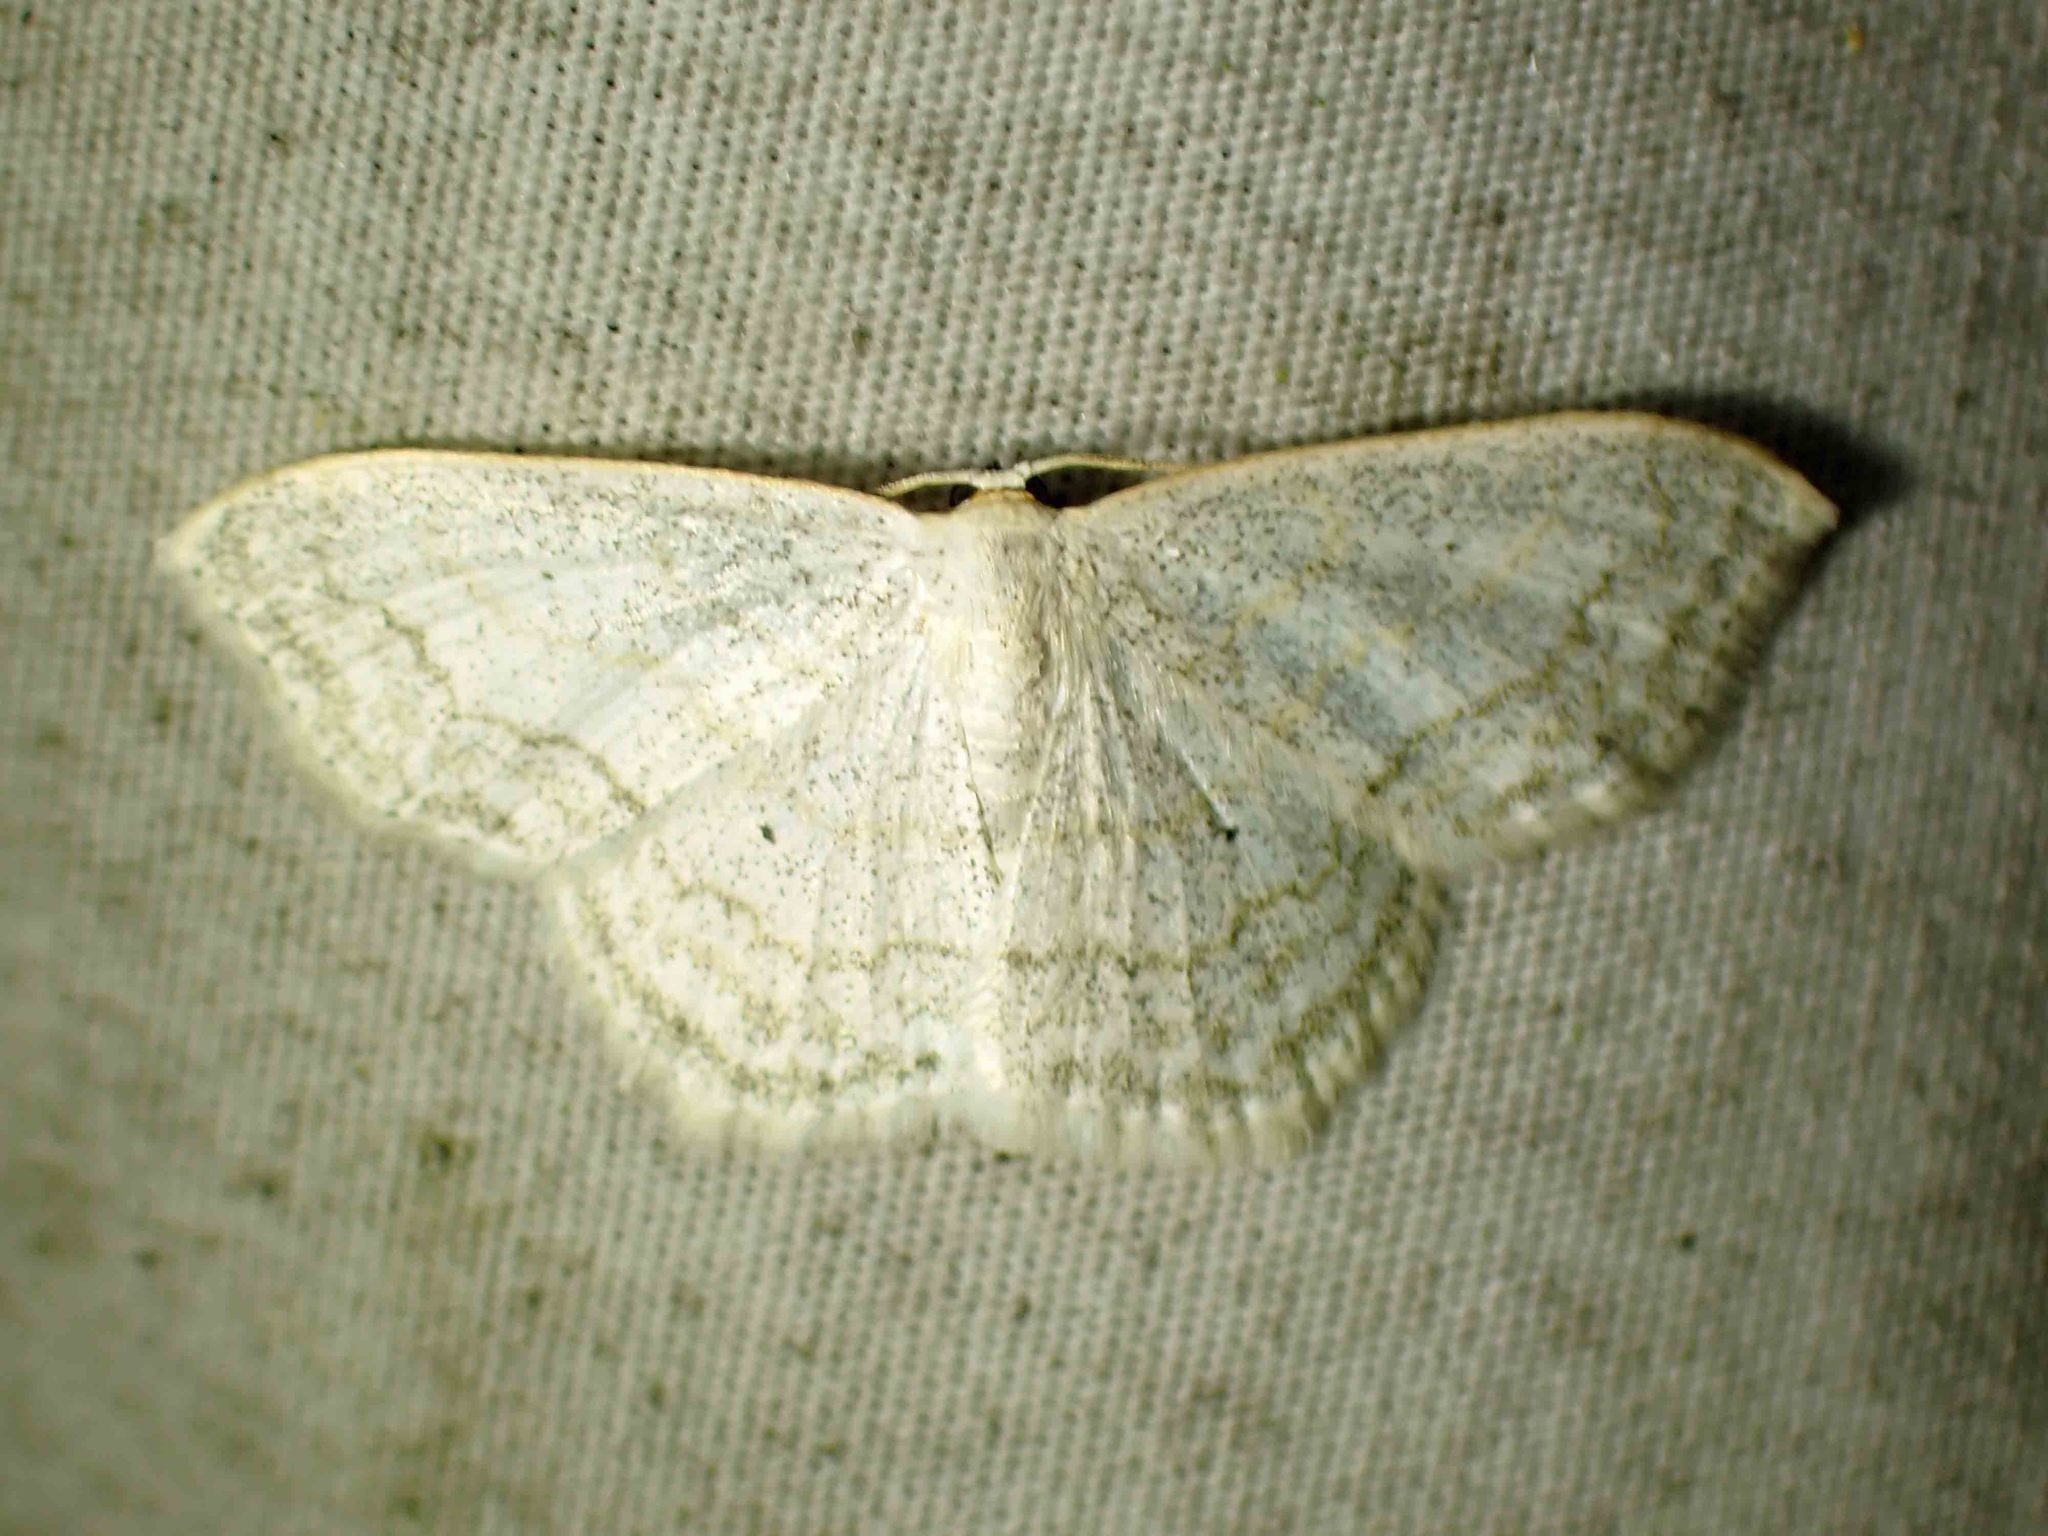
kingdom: Animalia
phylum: Arthropoda
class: Insecta
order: Lepidoptera
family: Geometridae
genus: Scopula
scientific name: Scopula limboundata
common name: Large lace border
